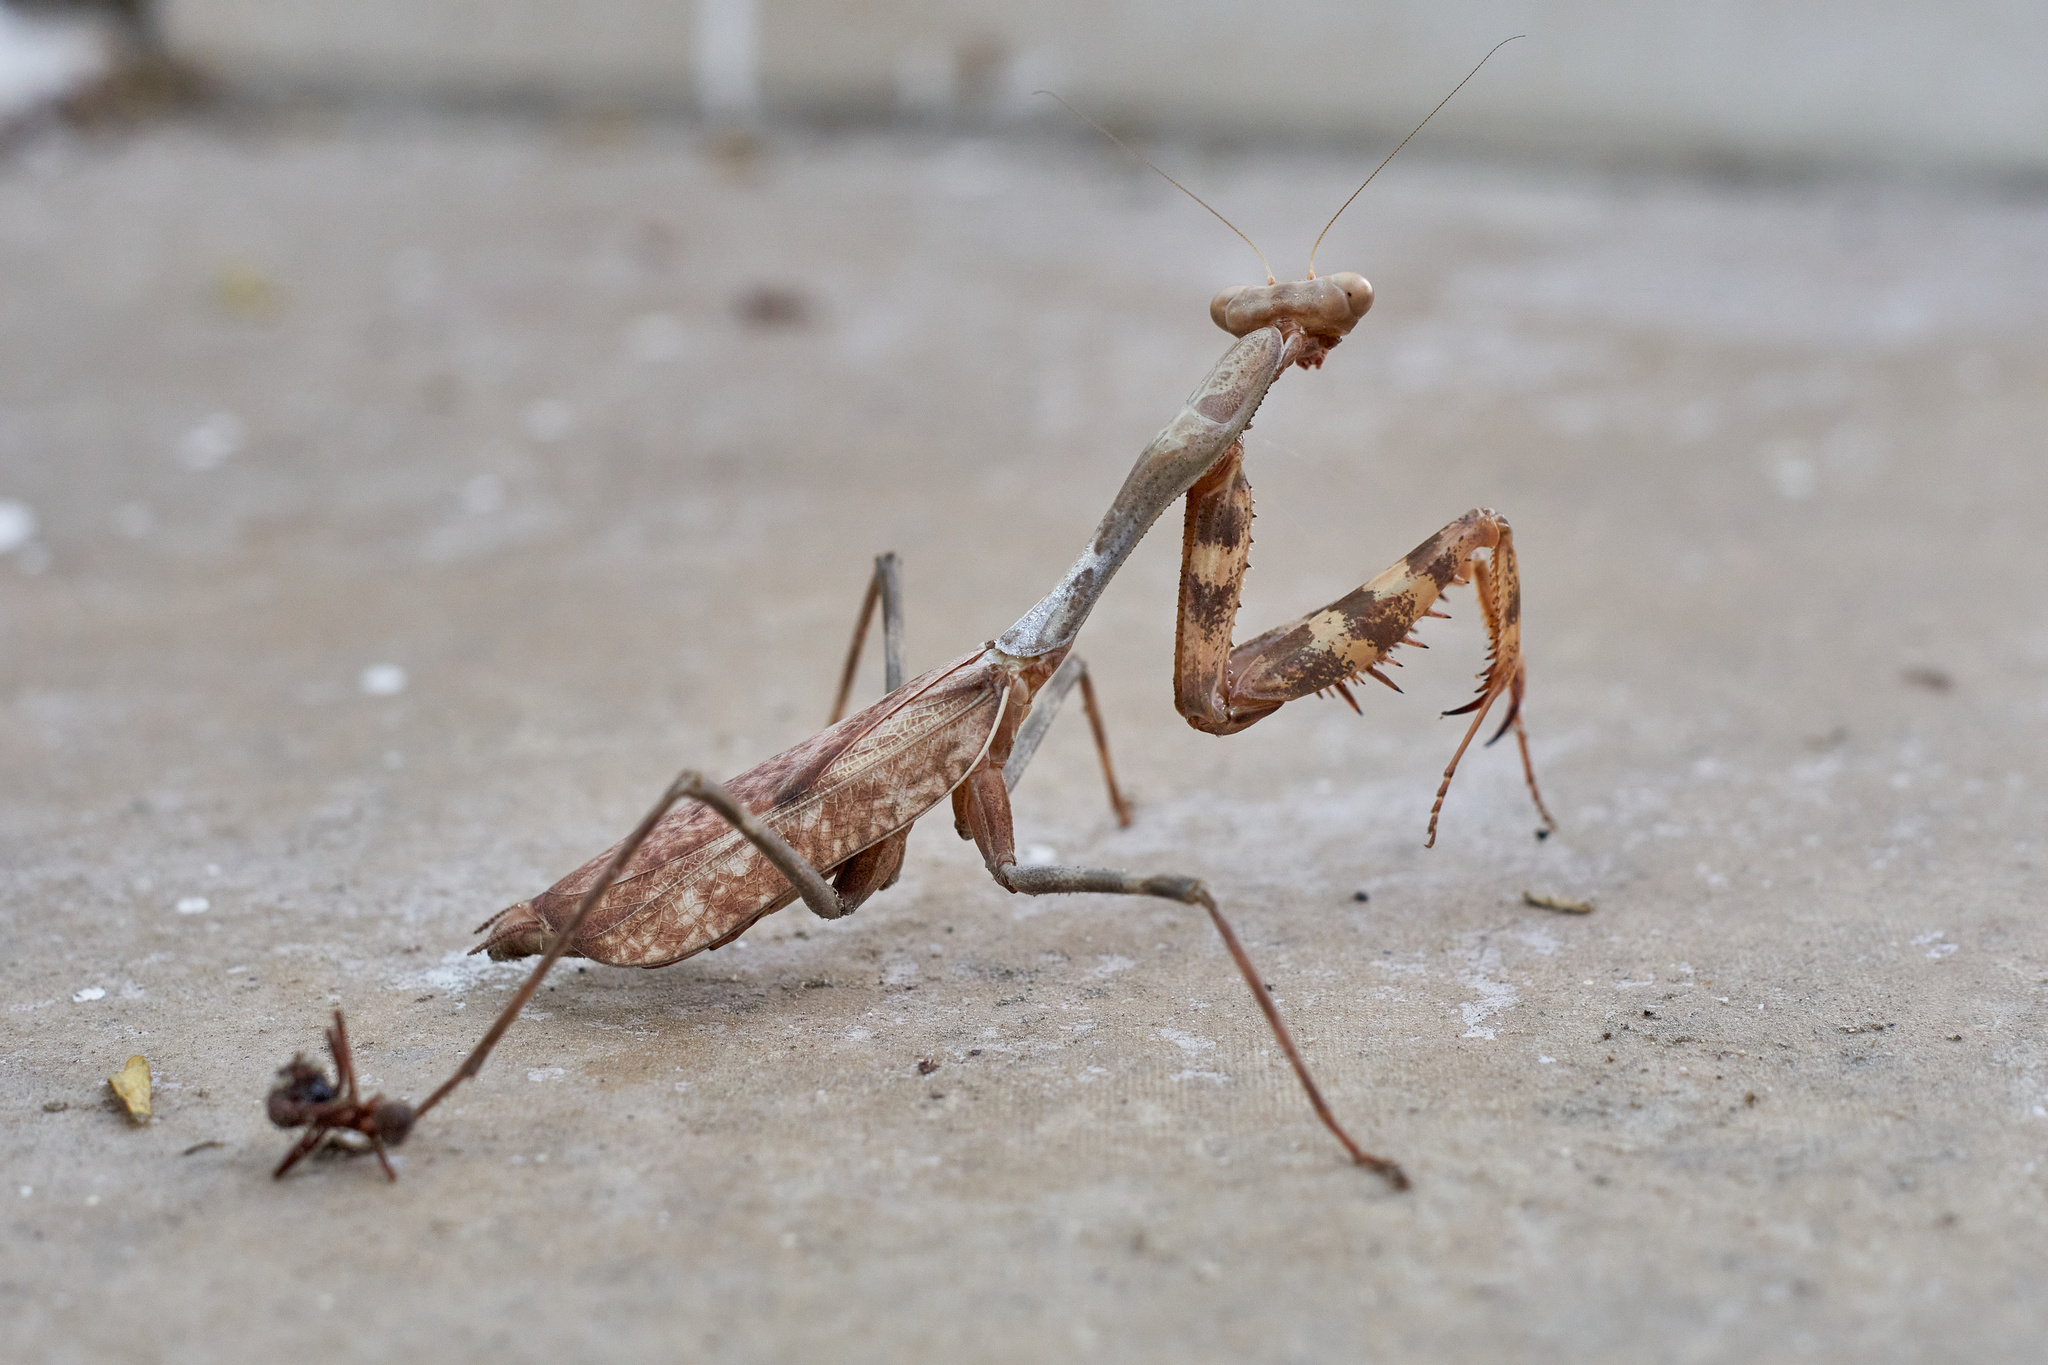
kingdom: Animalia
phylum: Arthropoda
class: Insecta
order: Mantodea
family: Mantidae
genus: Stagmomantis
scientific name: Stagmomantis montana
